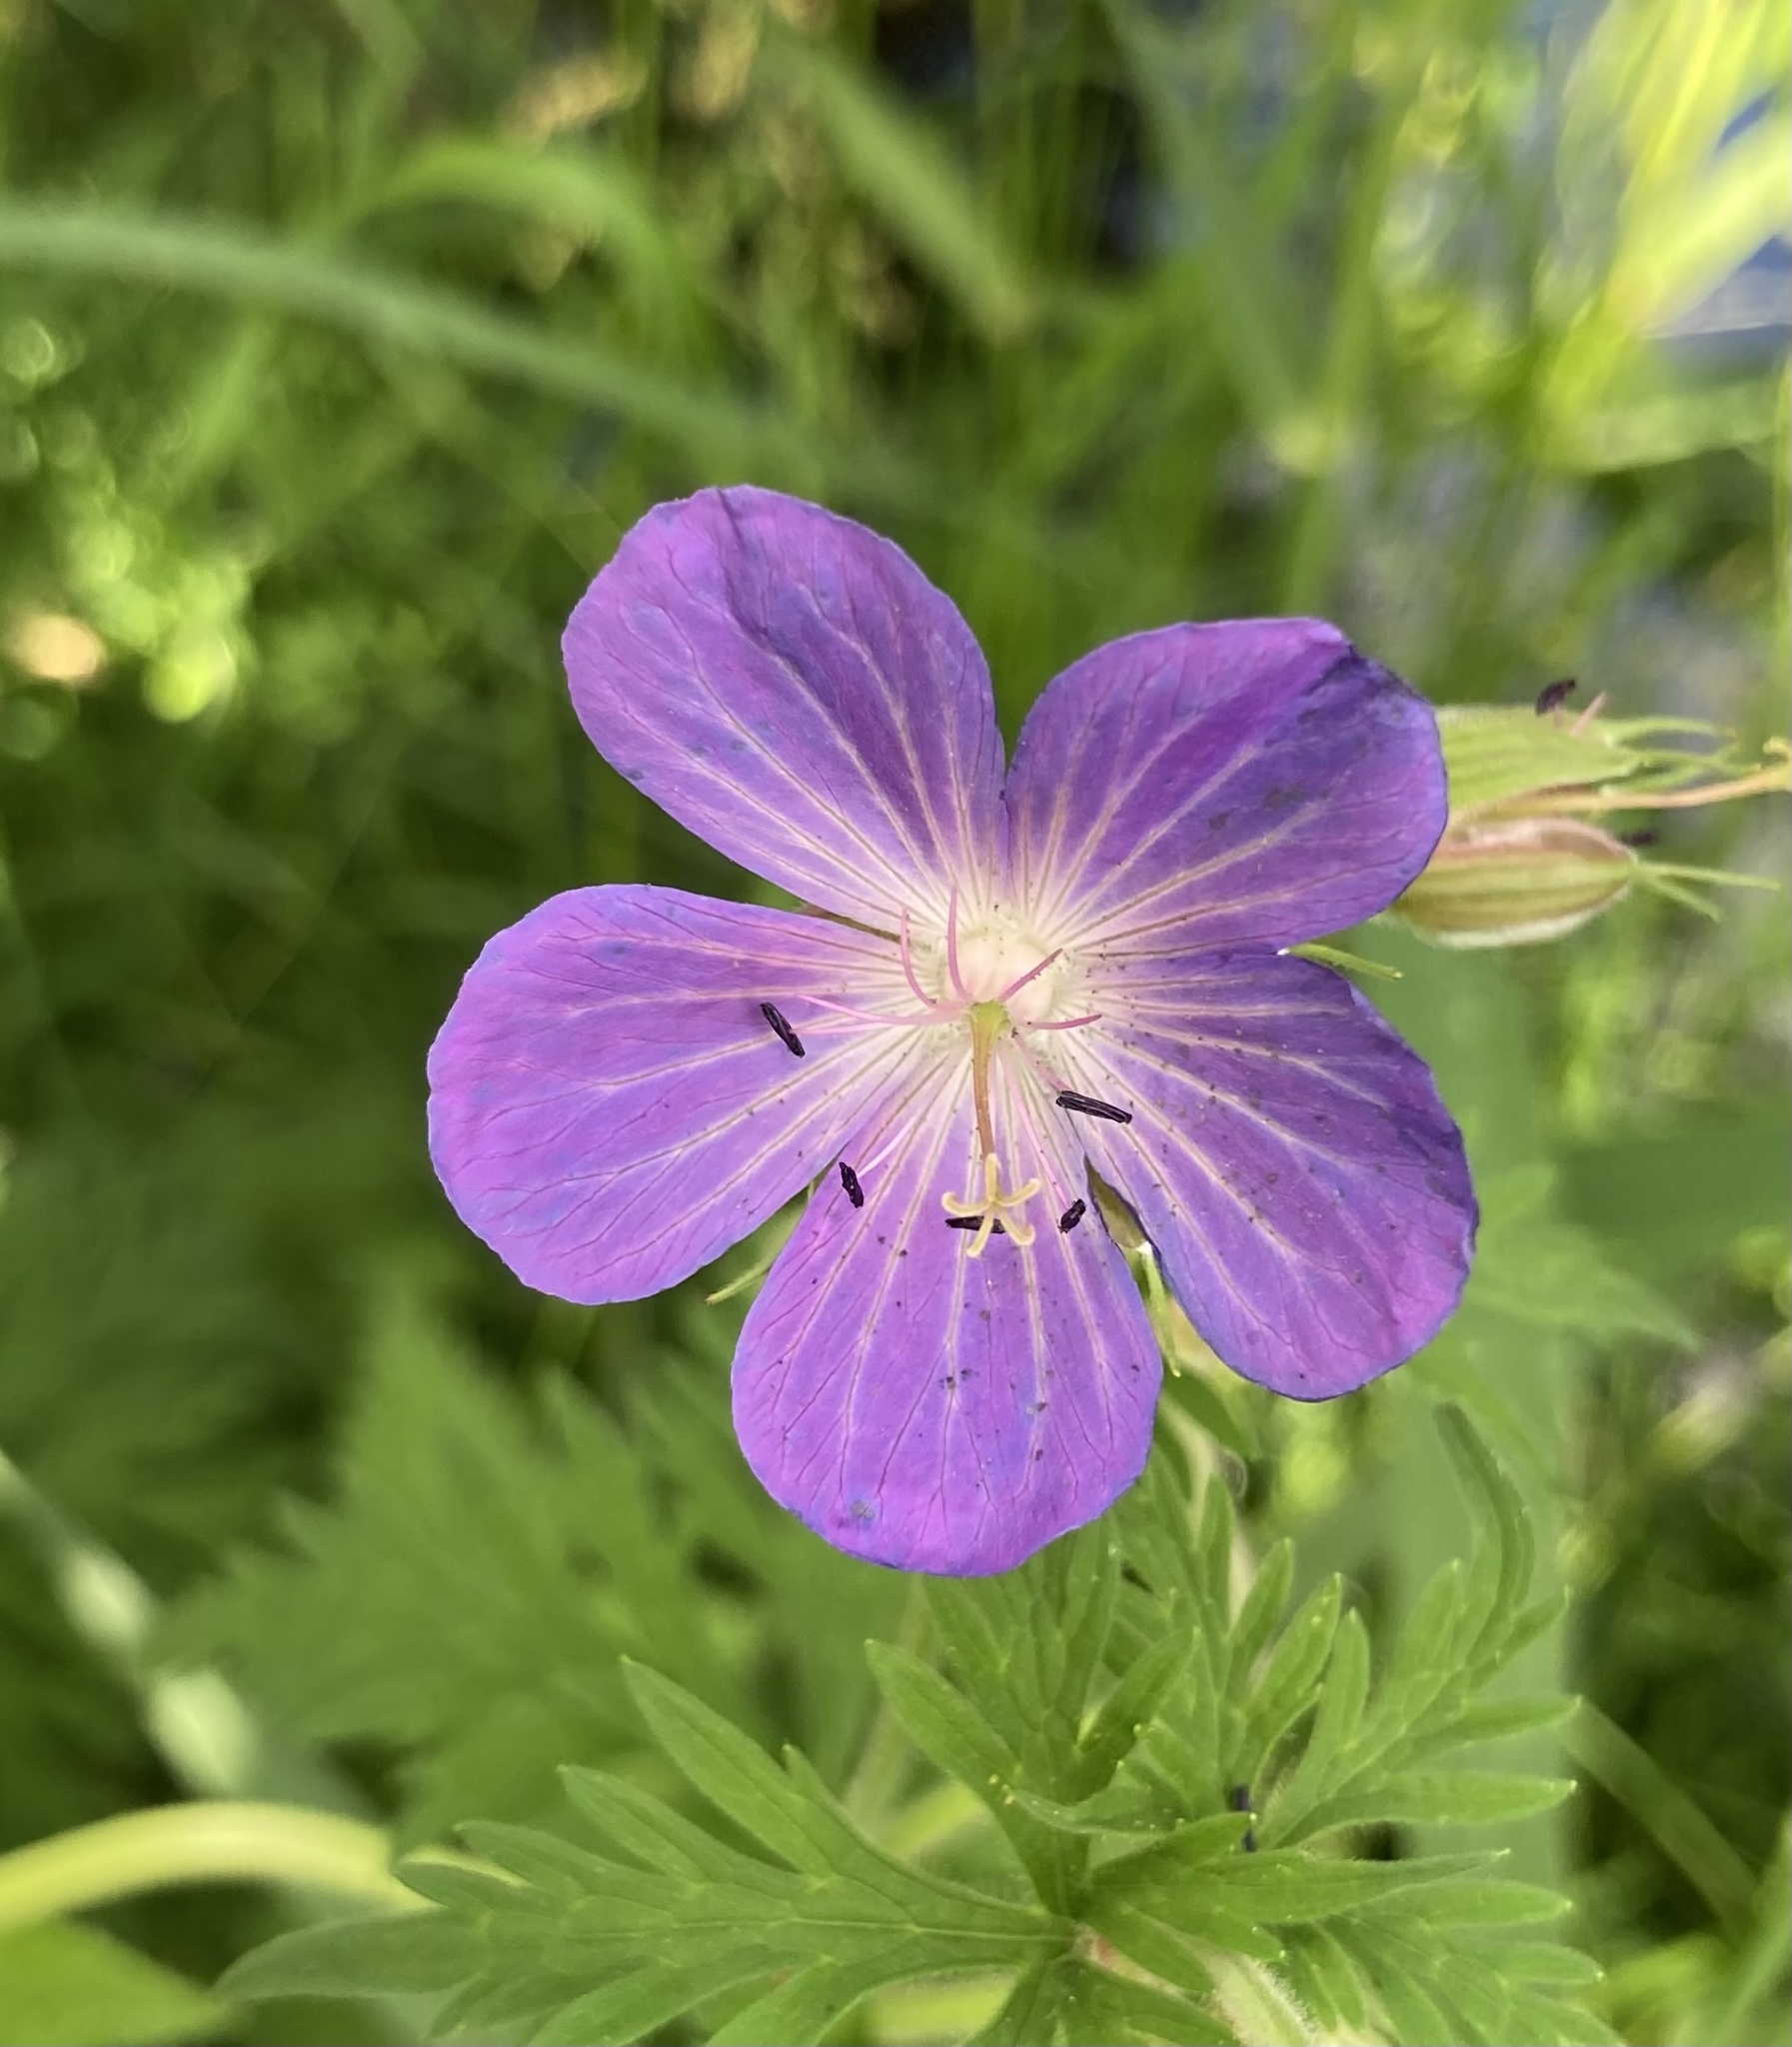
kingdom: Plantae
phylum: Tracheophyta
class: Magnoliopsida
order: Geraniales
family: Geraniaceae
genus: Geranium
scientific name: Geranium pratense
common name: Meadow crane's-bill
